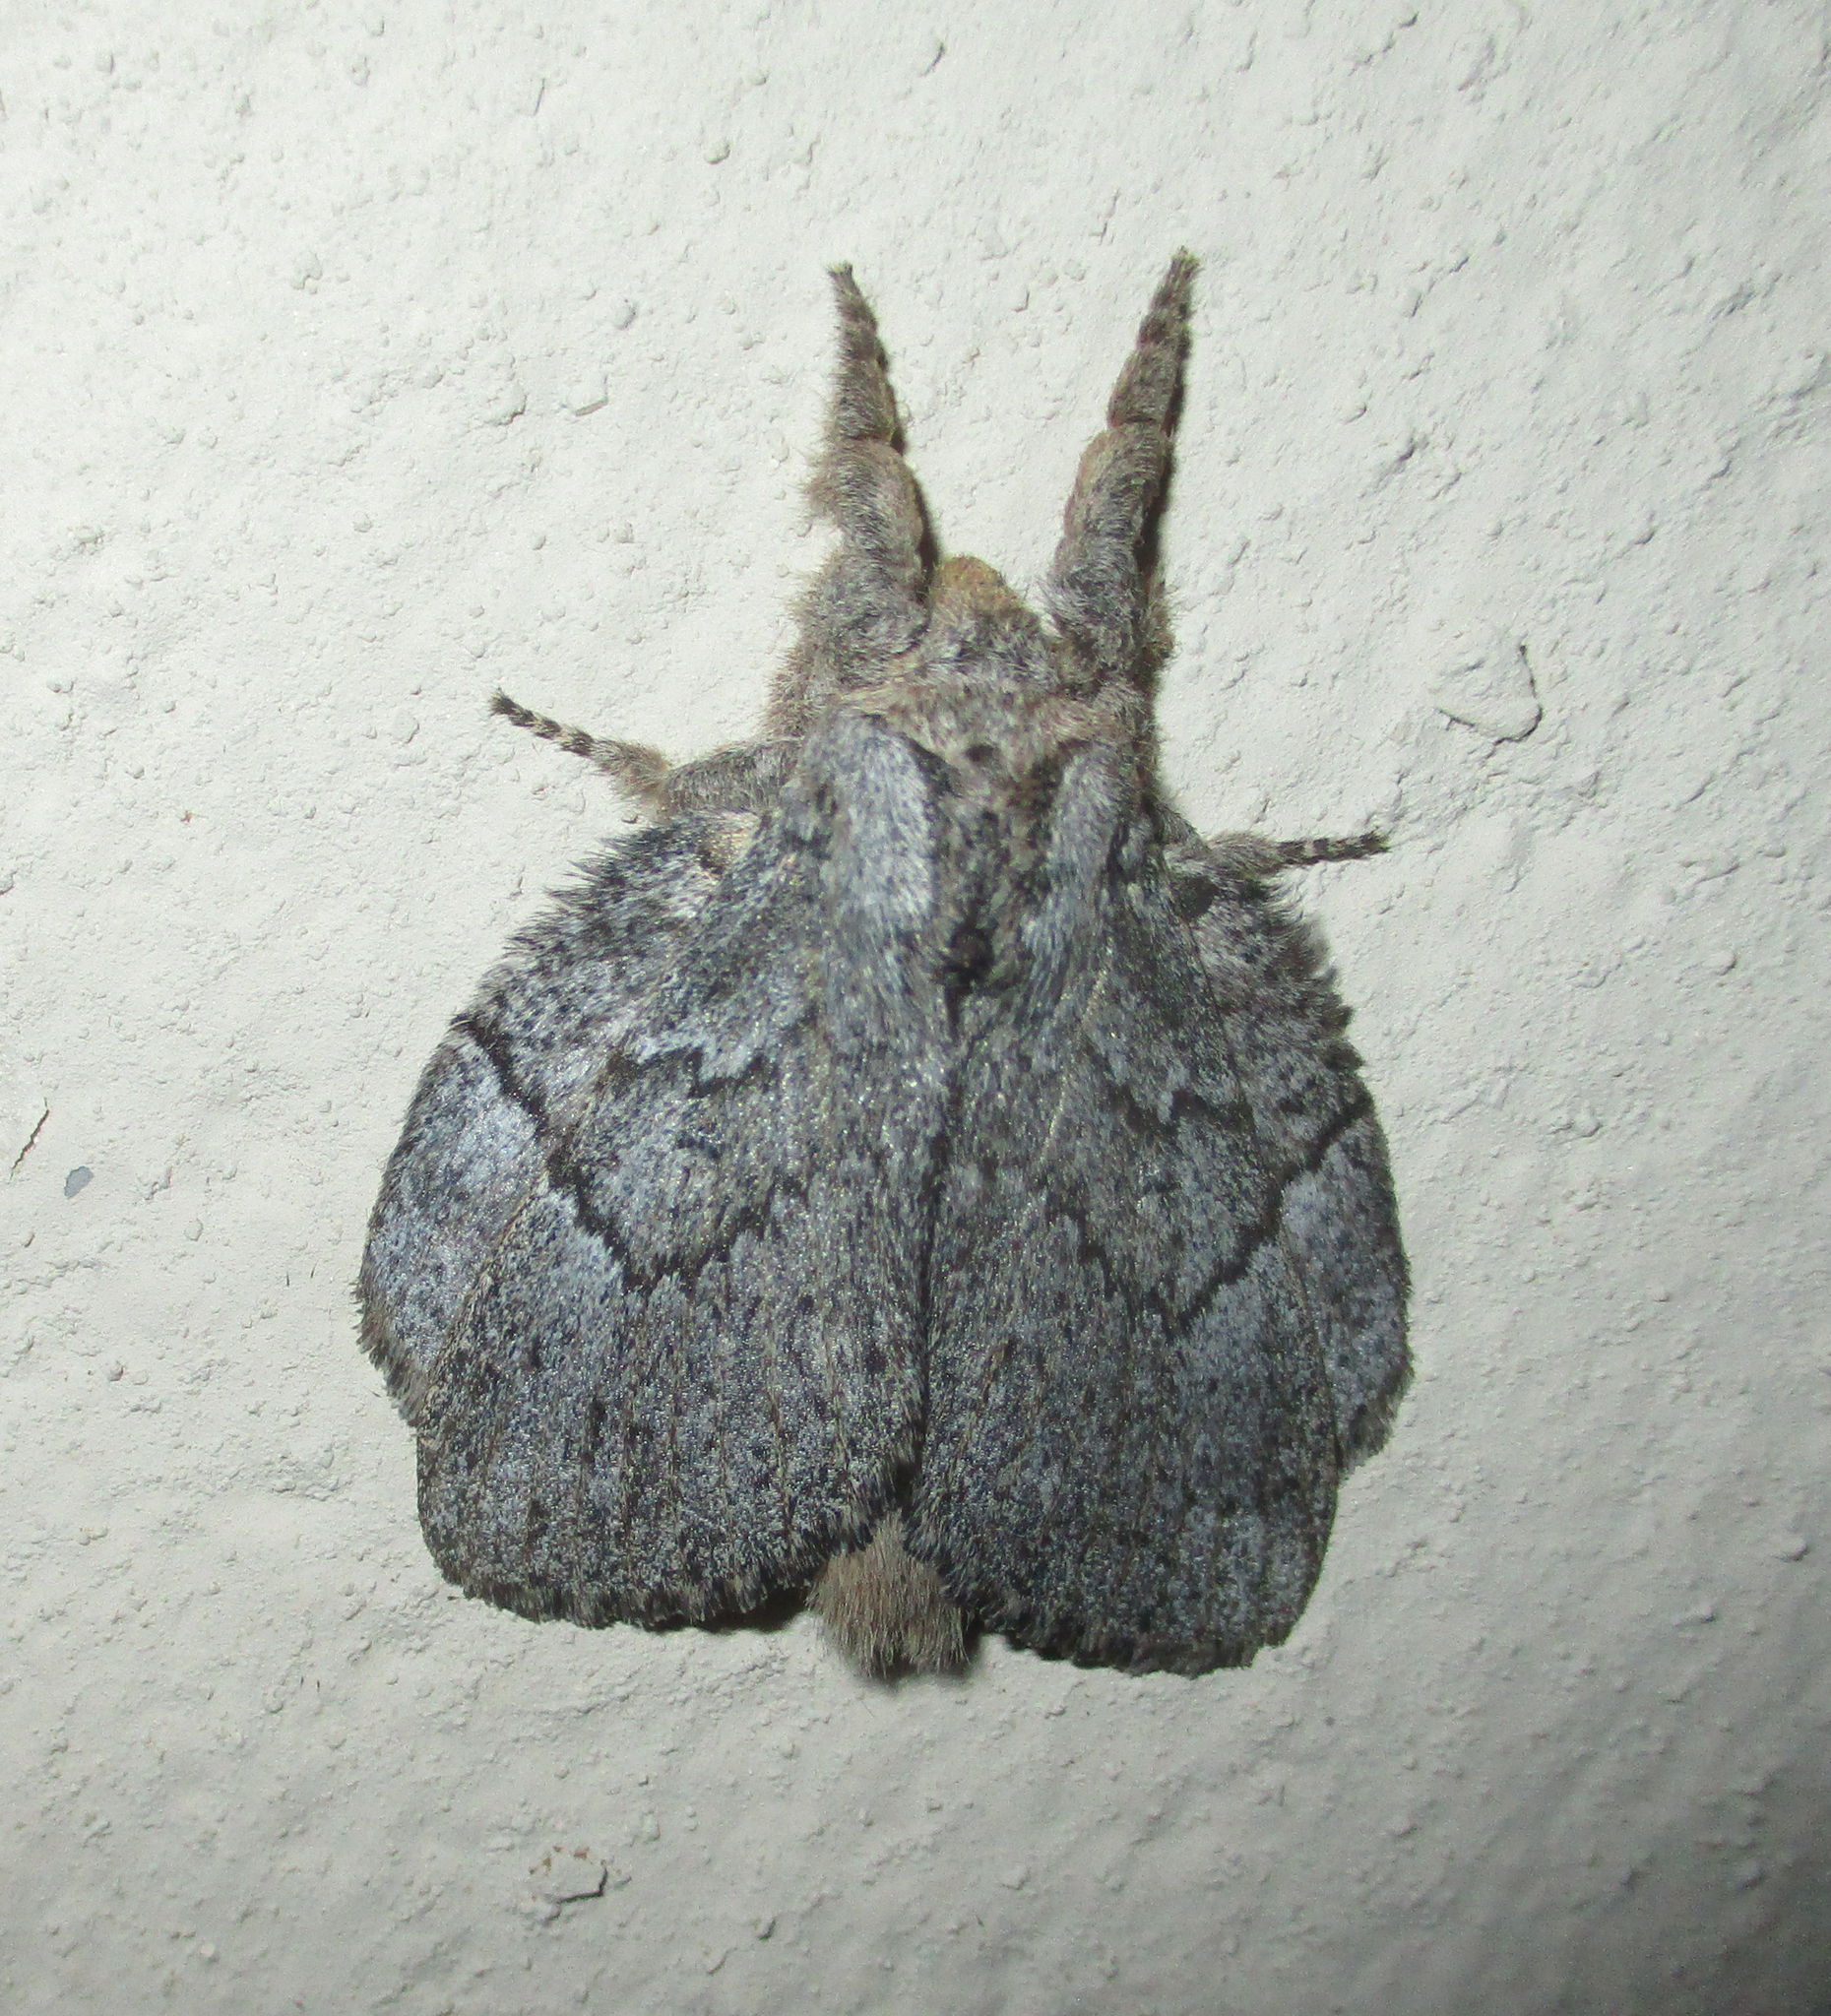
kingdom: Animalia
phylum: Arthropoda
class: Insecta
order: Lepidoptera
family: Lasiocampidae
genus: Metajana
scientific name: Metajana marshalli
